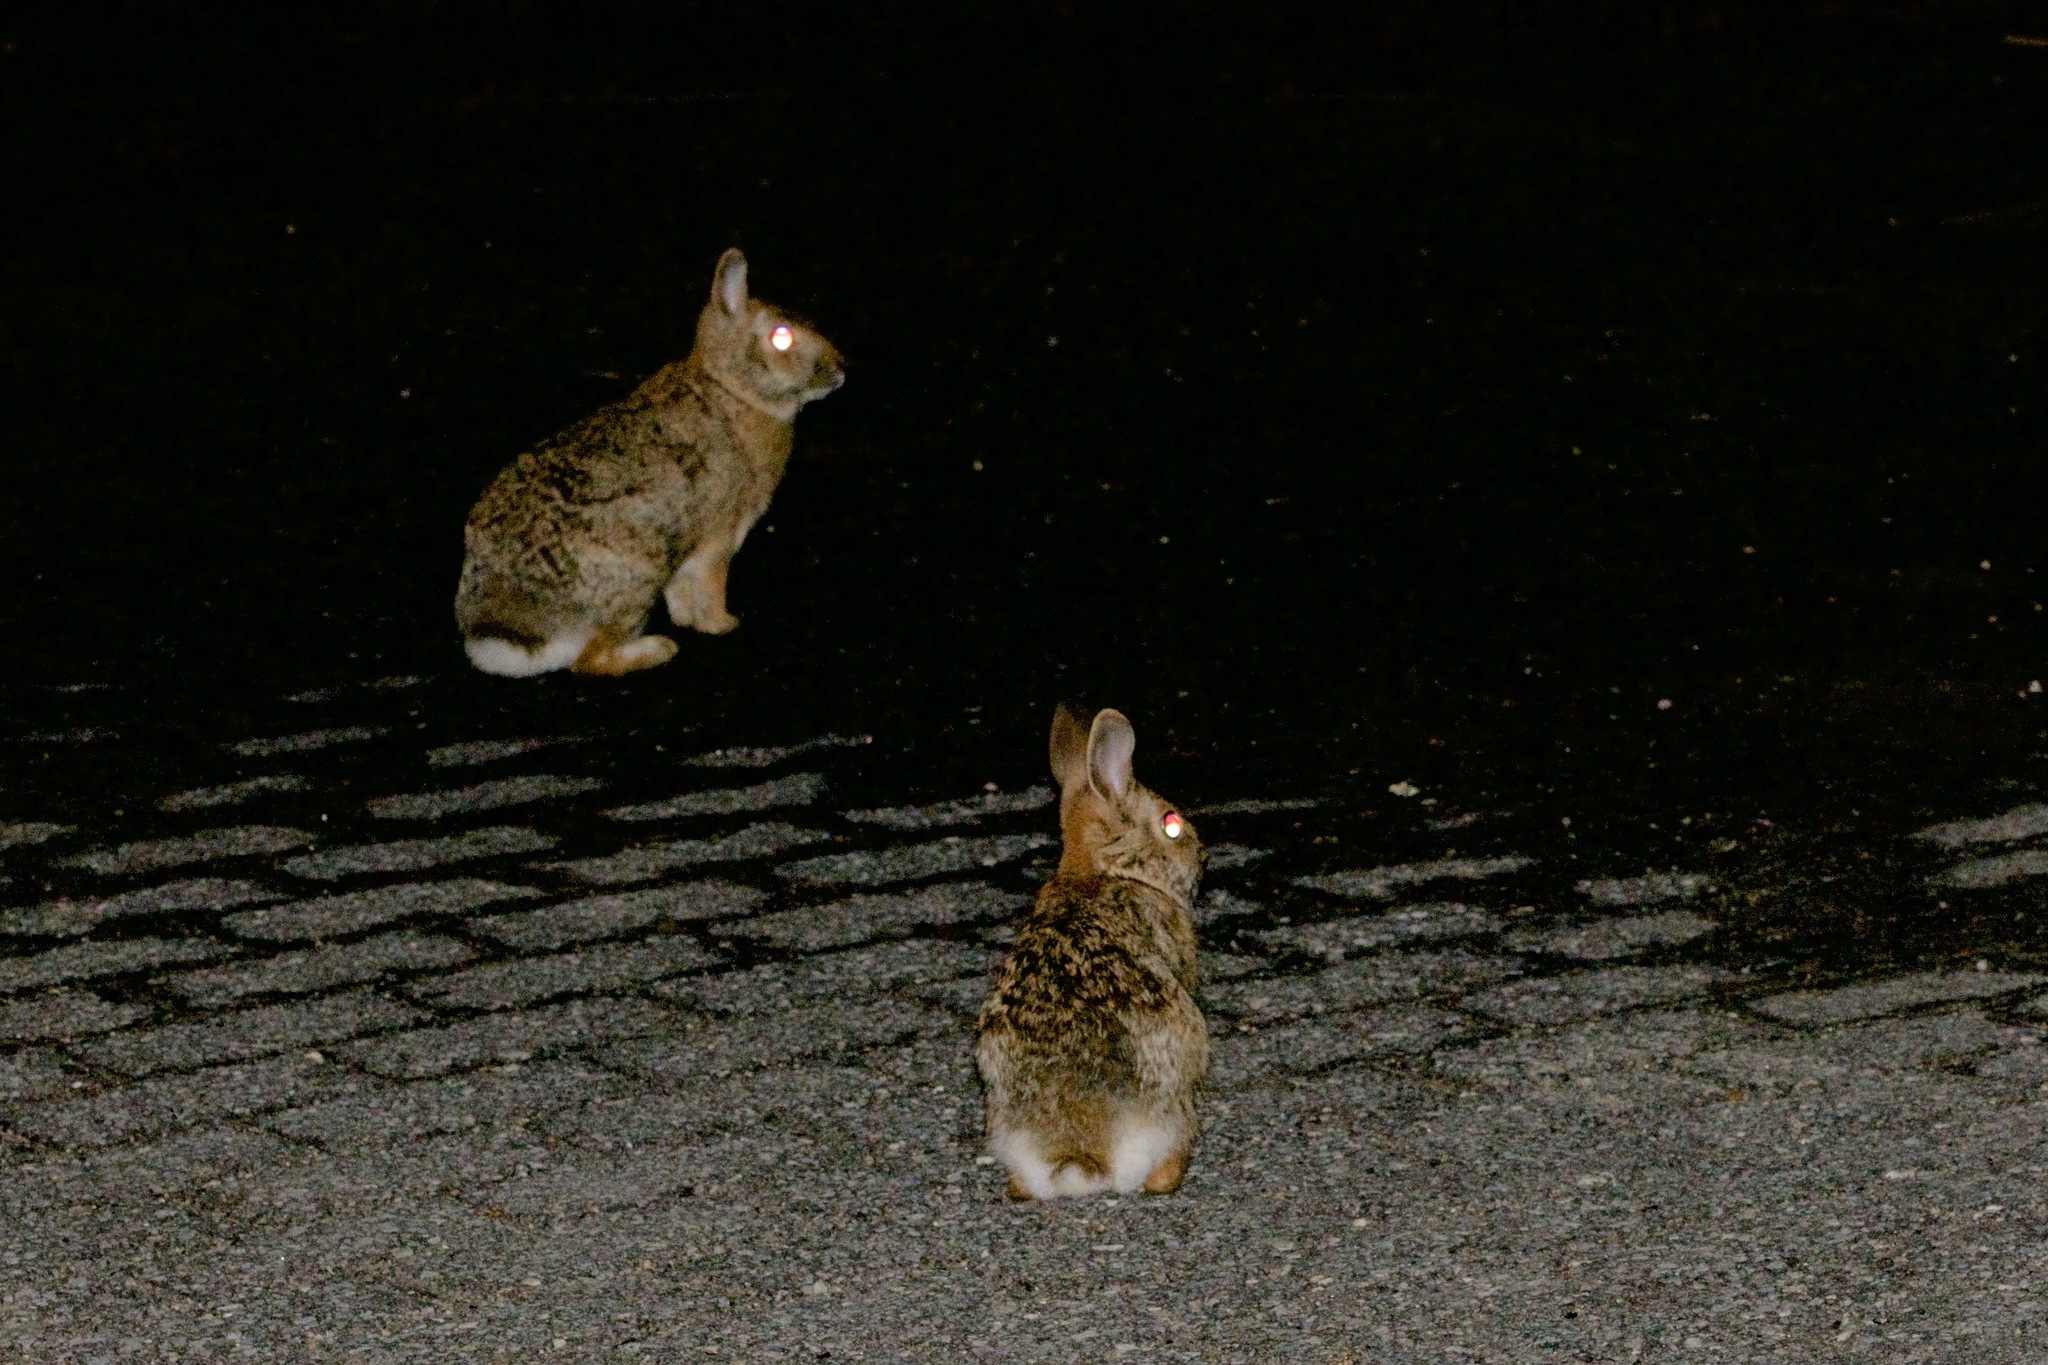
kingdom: Animalia
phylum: Chordata
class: Mammalia
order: Lagomorpha
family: Leporidae
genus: Sylvilagus
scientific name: Sylvilagus floridanus
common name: Eastern cottontail
